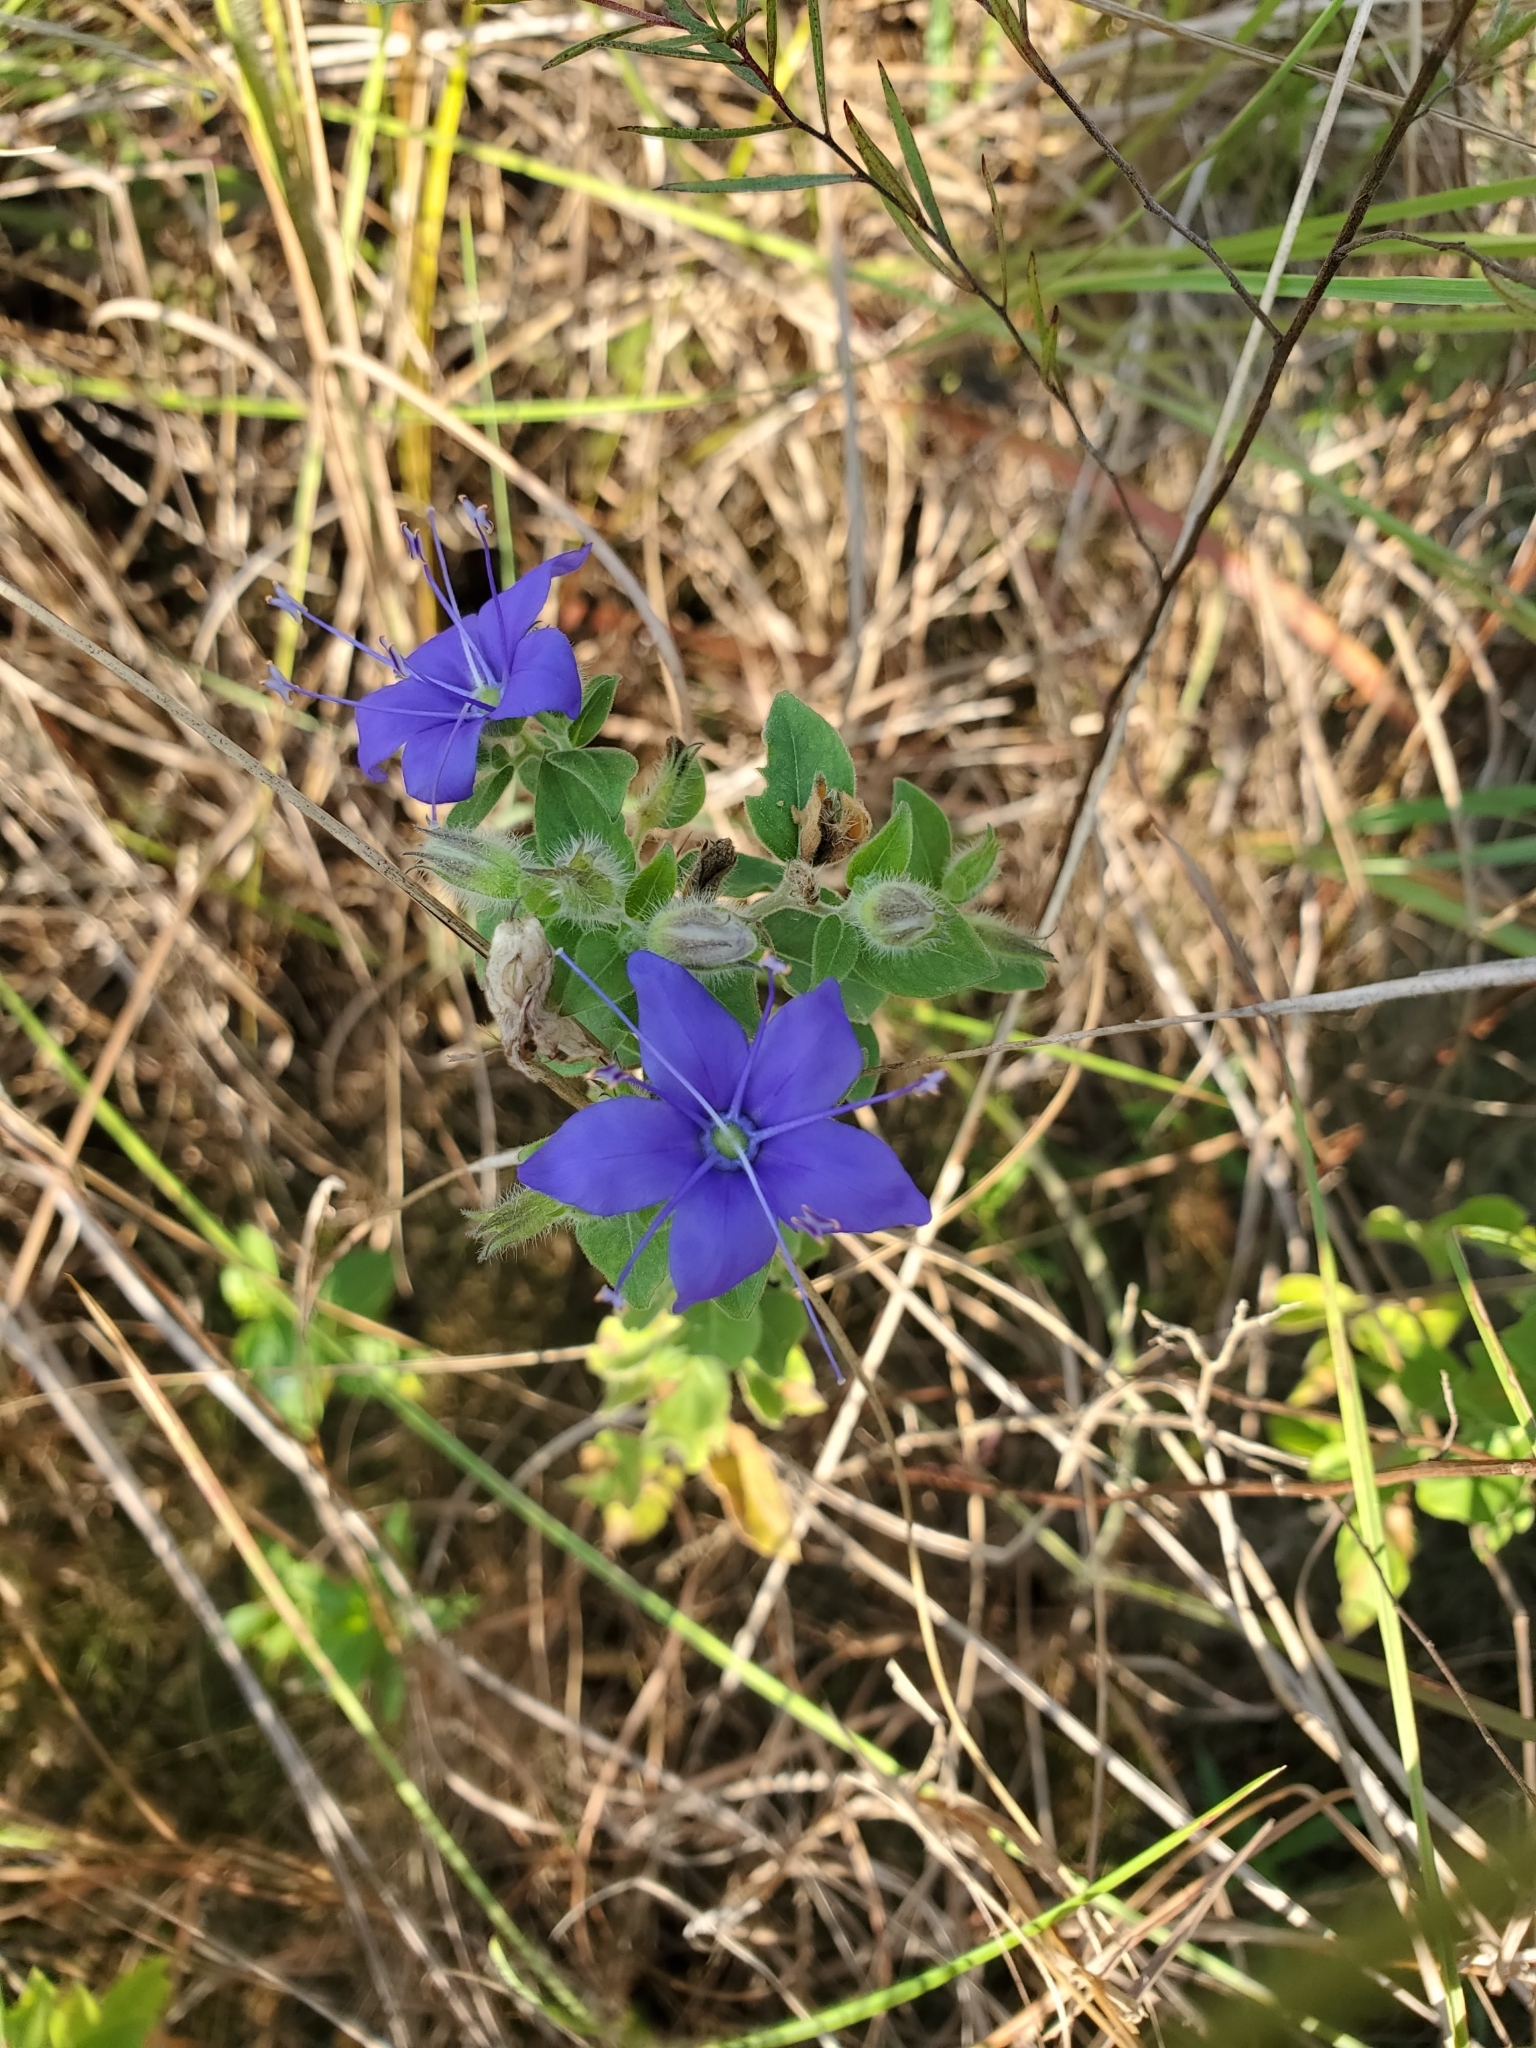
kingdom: Plantae
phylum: Tracheophyta
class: Magnoliopsida
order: Solanales
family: Hydroleaceae
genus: Hydrolea
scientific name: Hydrolea ovata
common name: Ovate false fiddleleaf
